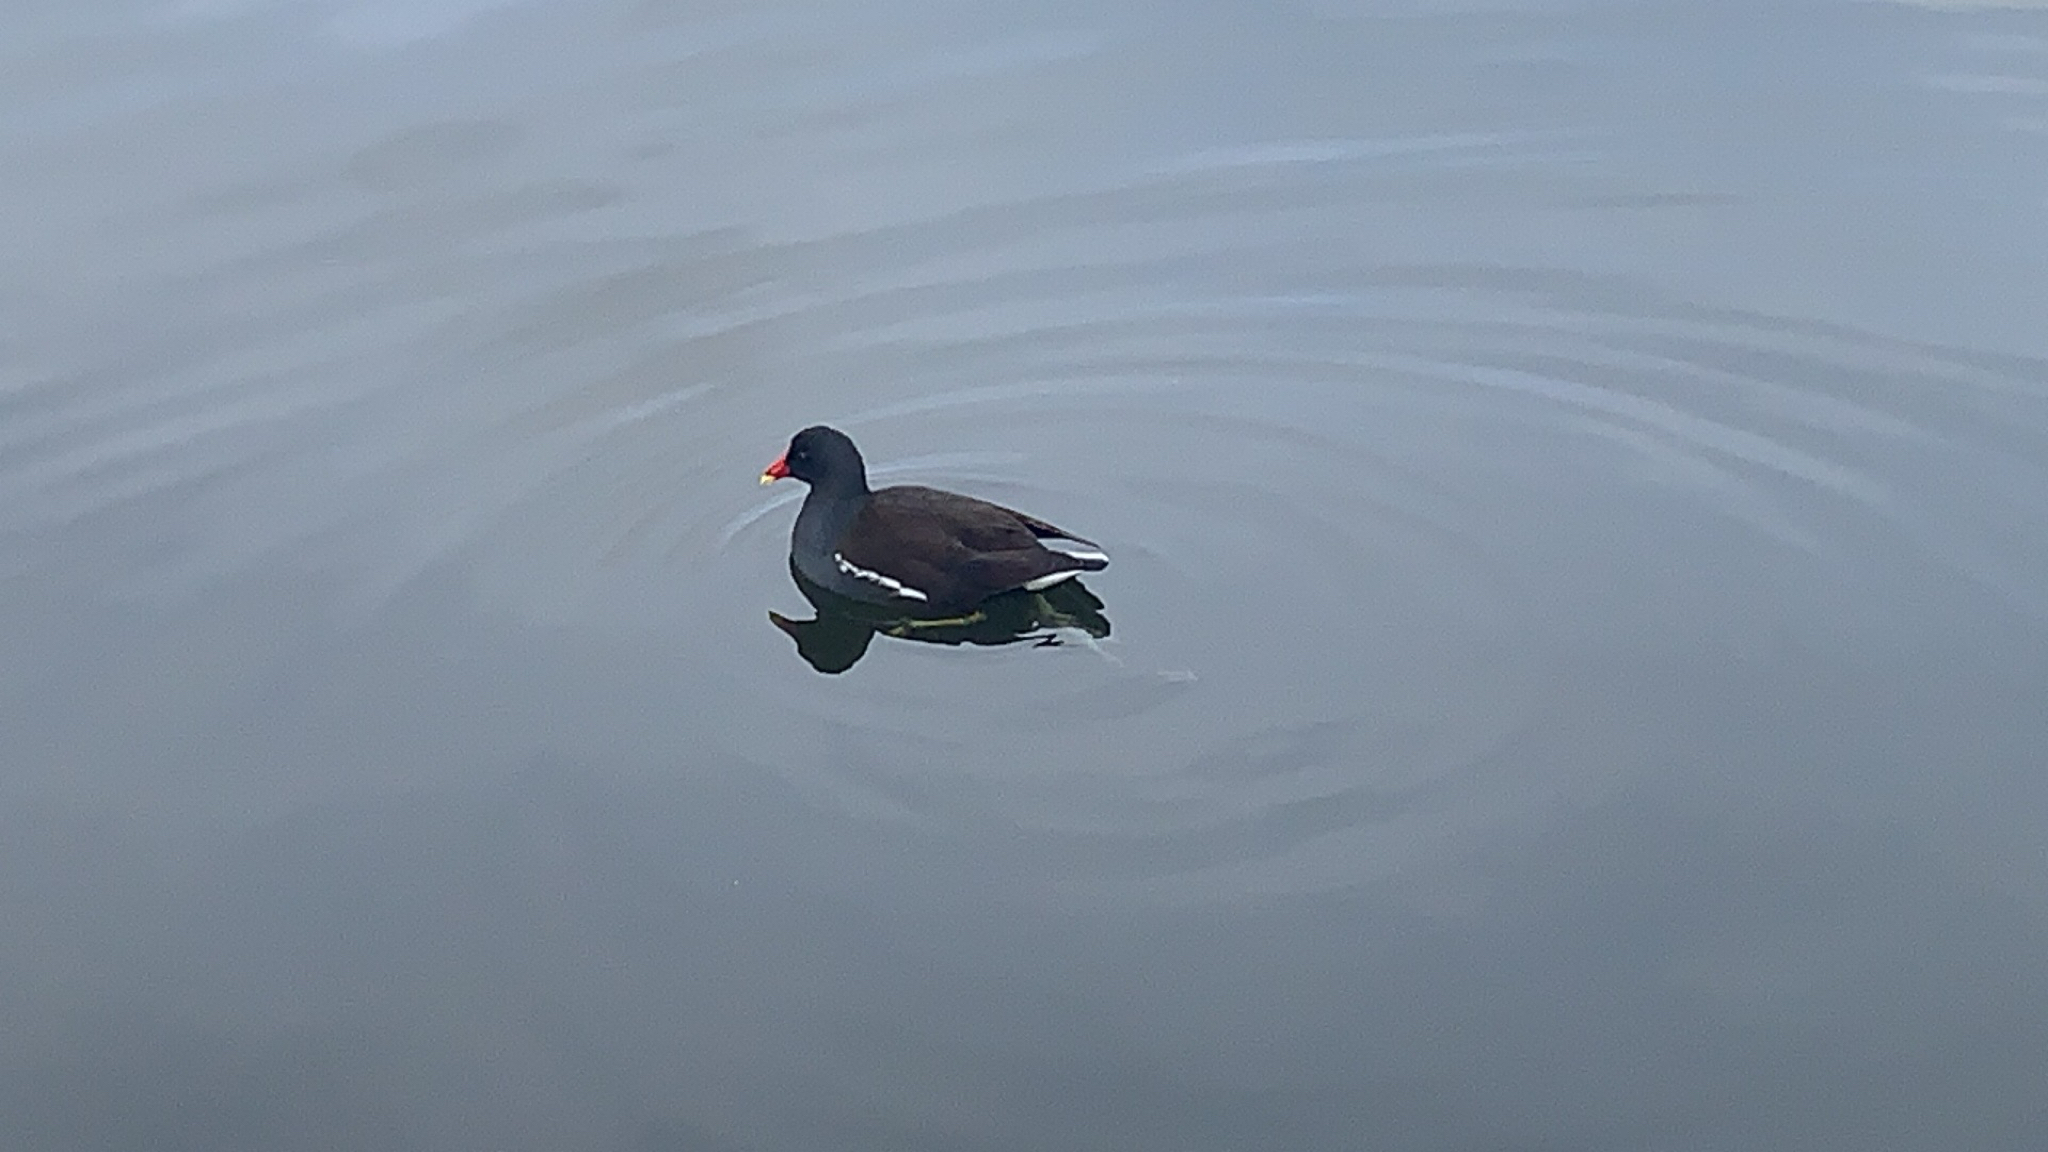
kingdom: Animalia
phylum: Chordata
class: Aves
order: Gruiformes
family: Rallidae
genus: Gallinula
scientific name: Gallinula chloropus
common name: Common moorhen
